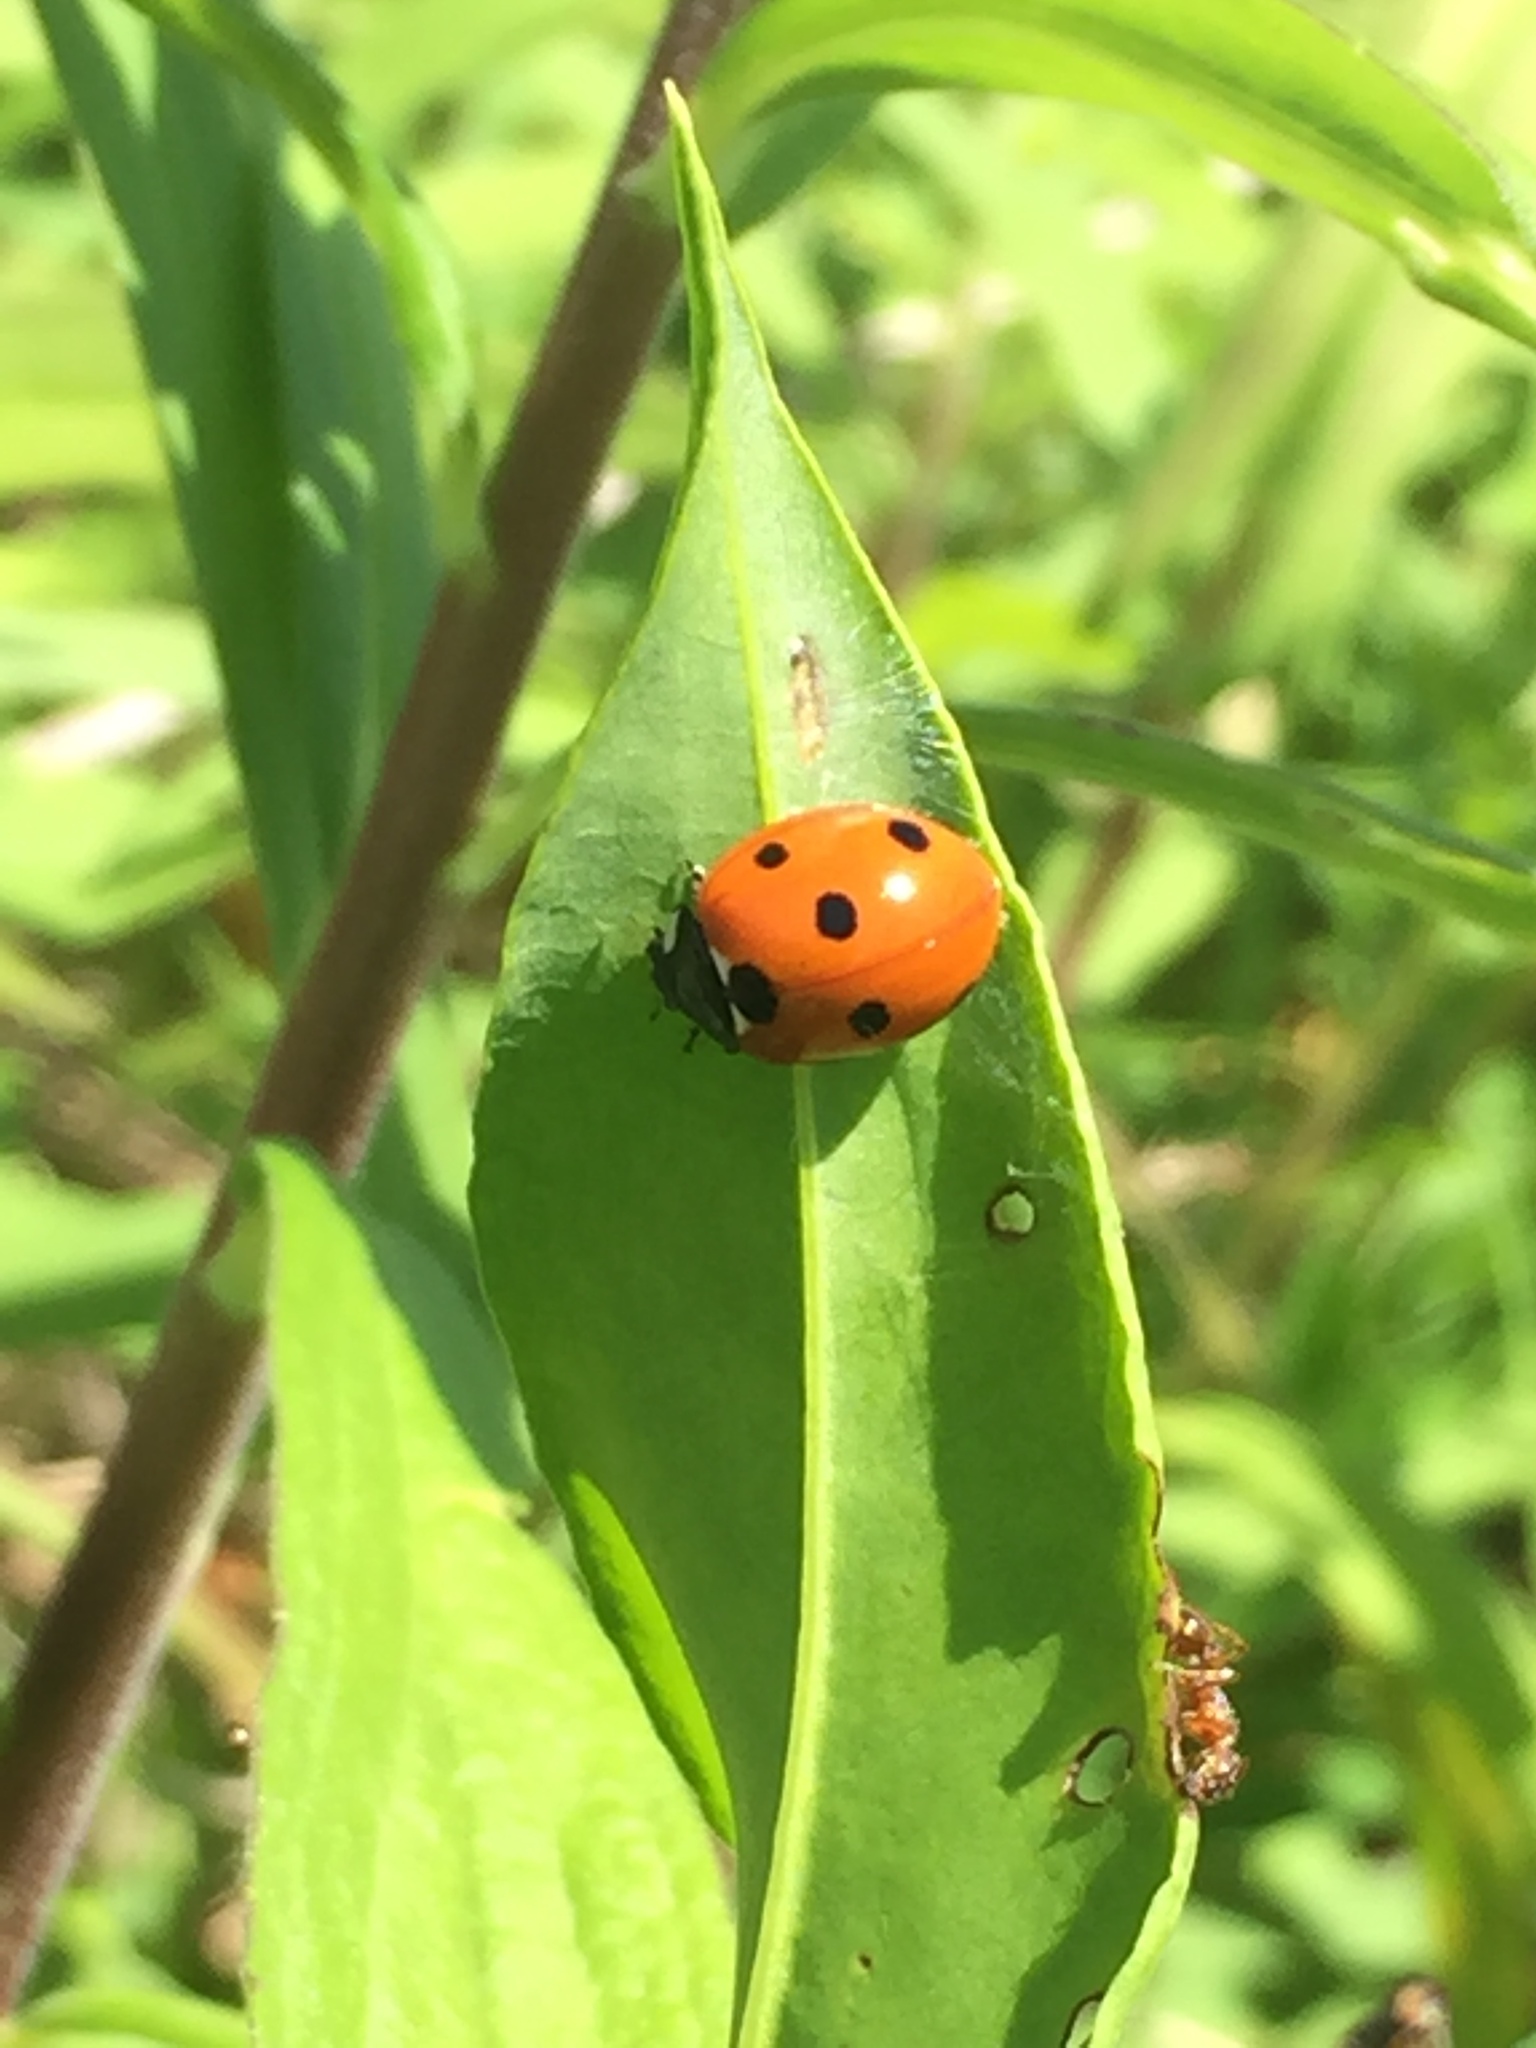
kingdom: Animalia
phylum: Arthropoda
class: Insecta
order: Coleoptera
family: Coccinellidae
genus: Coccinella
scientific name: Coccinella septempunctata
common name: Sevenspotted lady beetle
